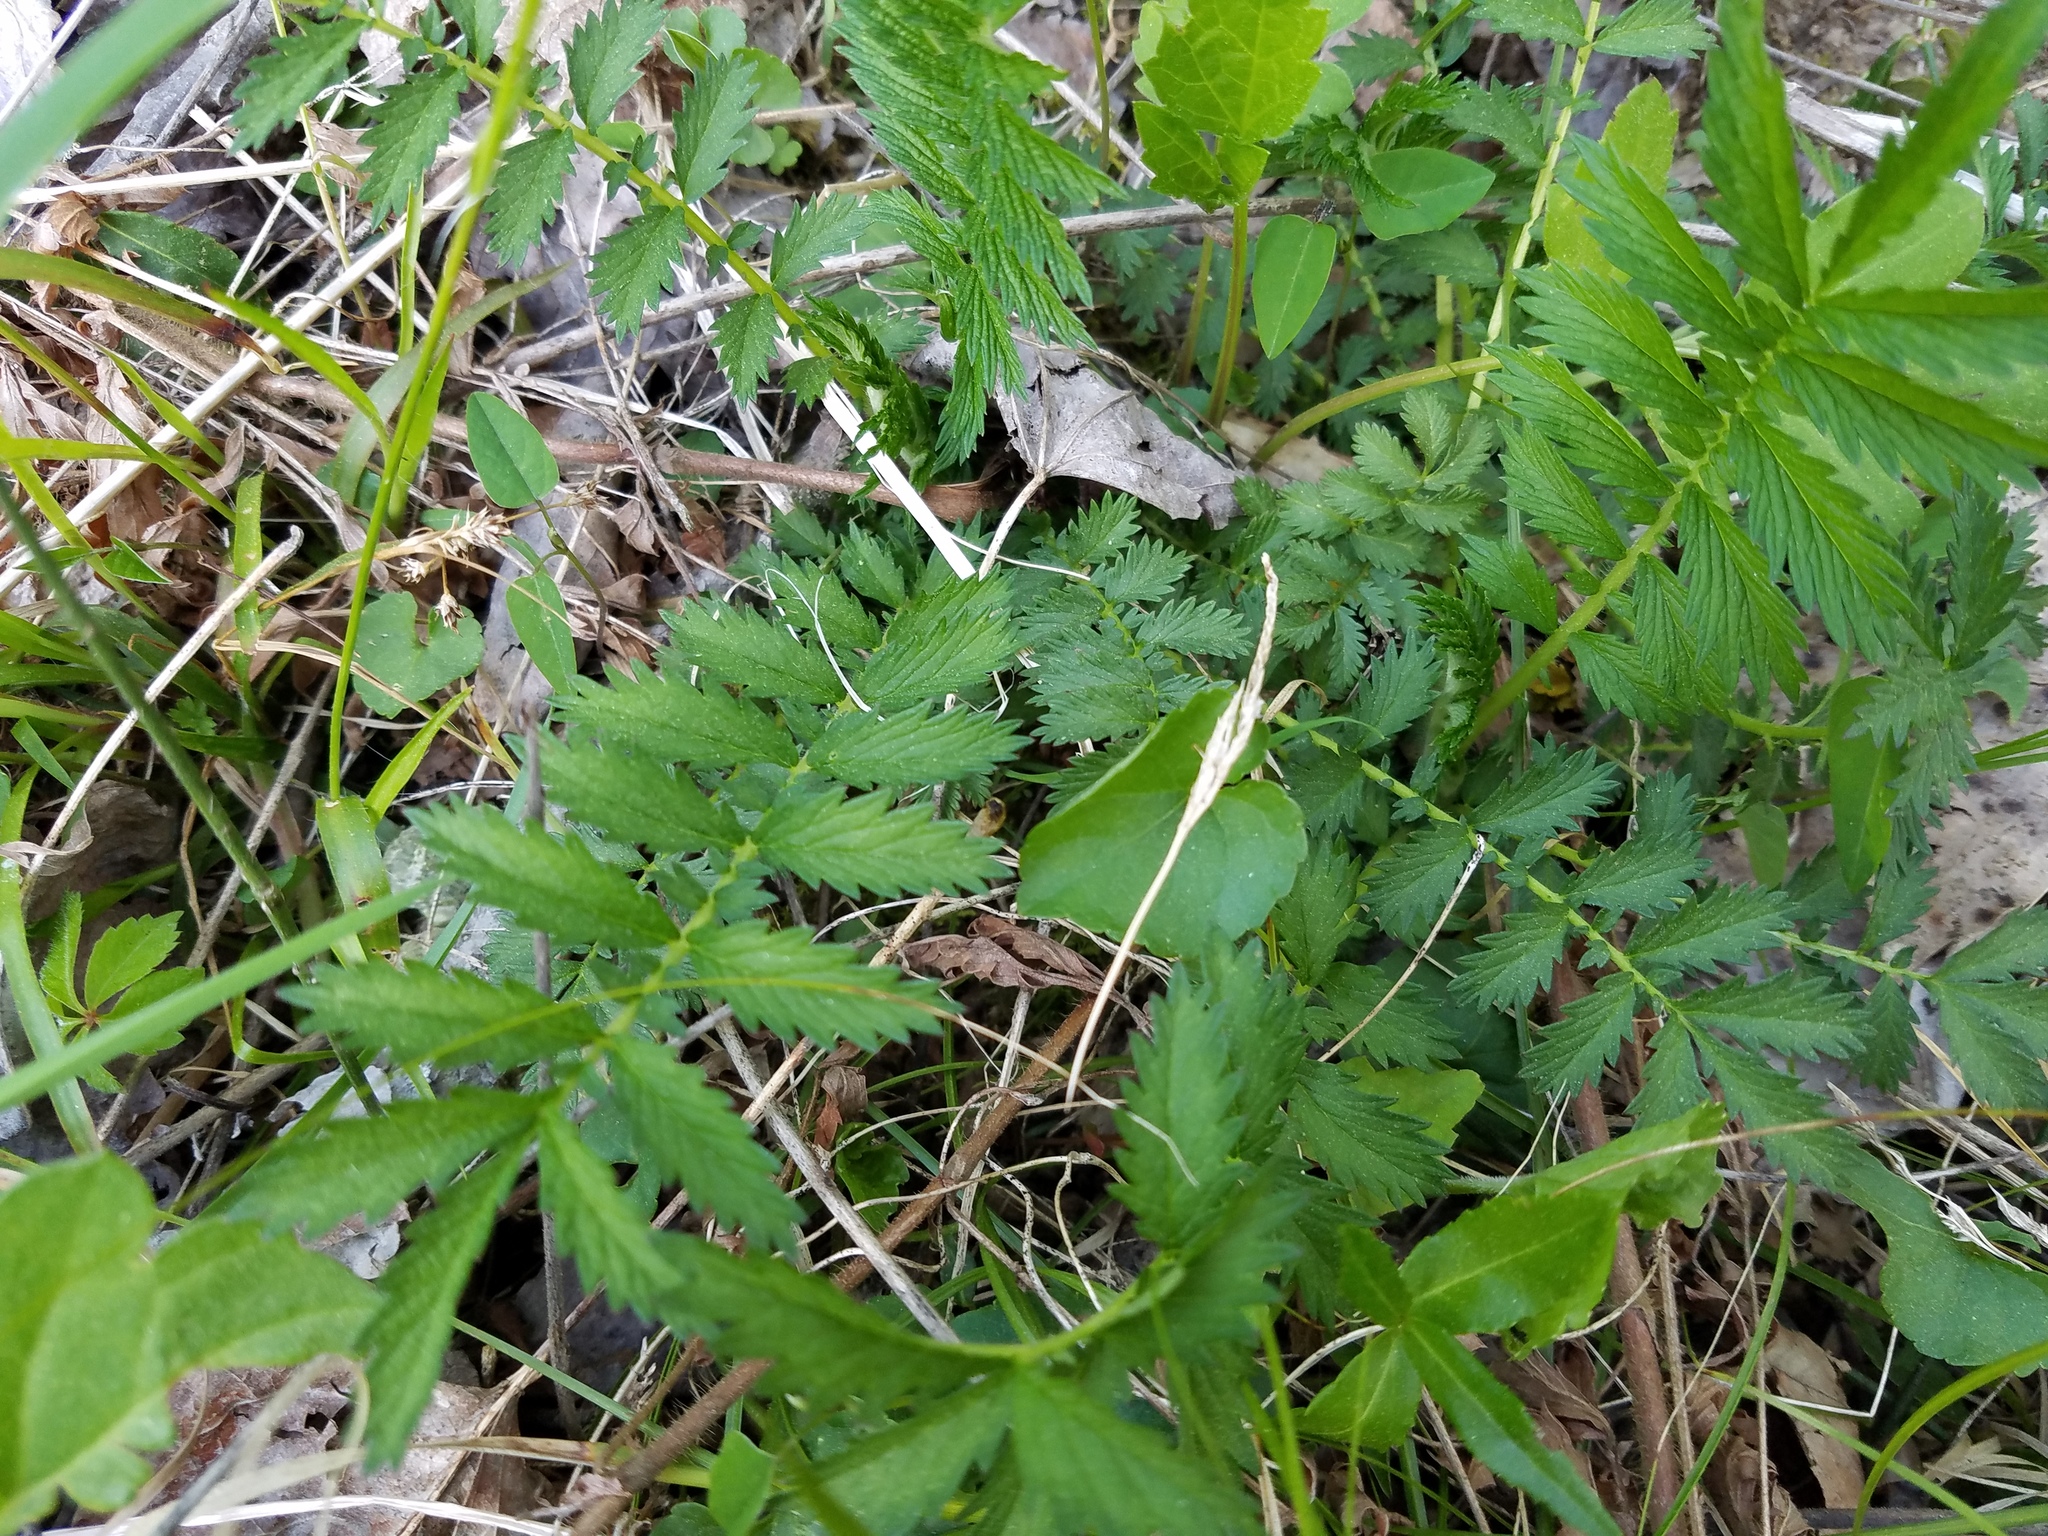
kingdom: Plantae
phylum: Tracheophyta
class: Magnoliopsida
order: Rosales
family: Rosaceae
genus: Agrimonia
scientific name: Agrimonia parviflora
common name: Harvest-lice
